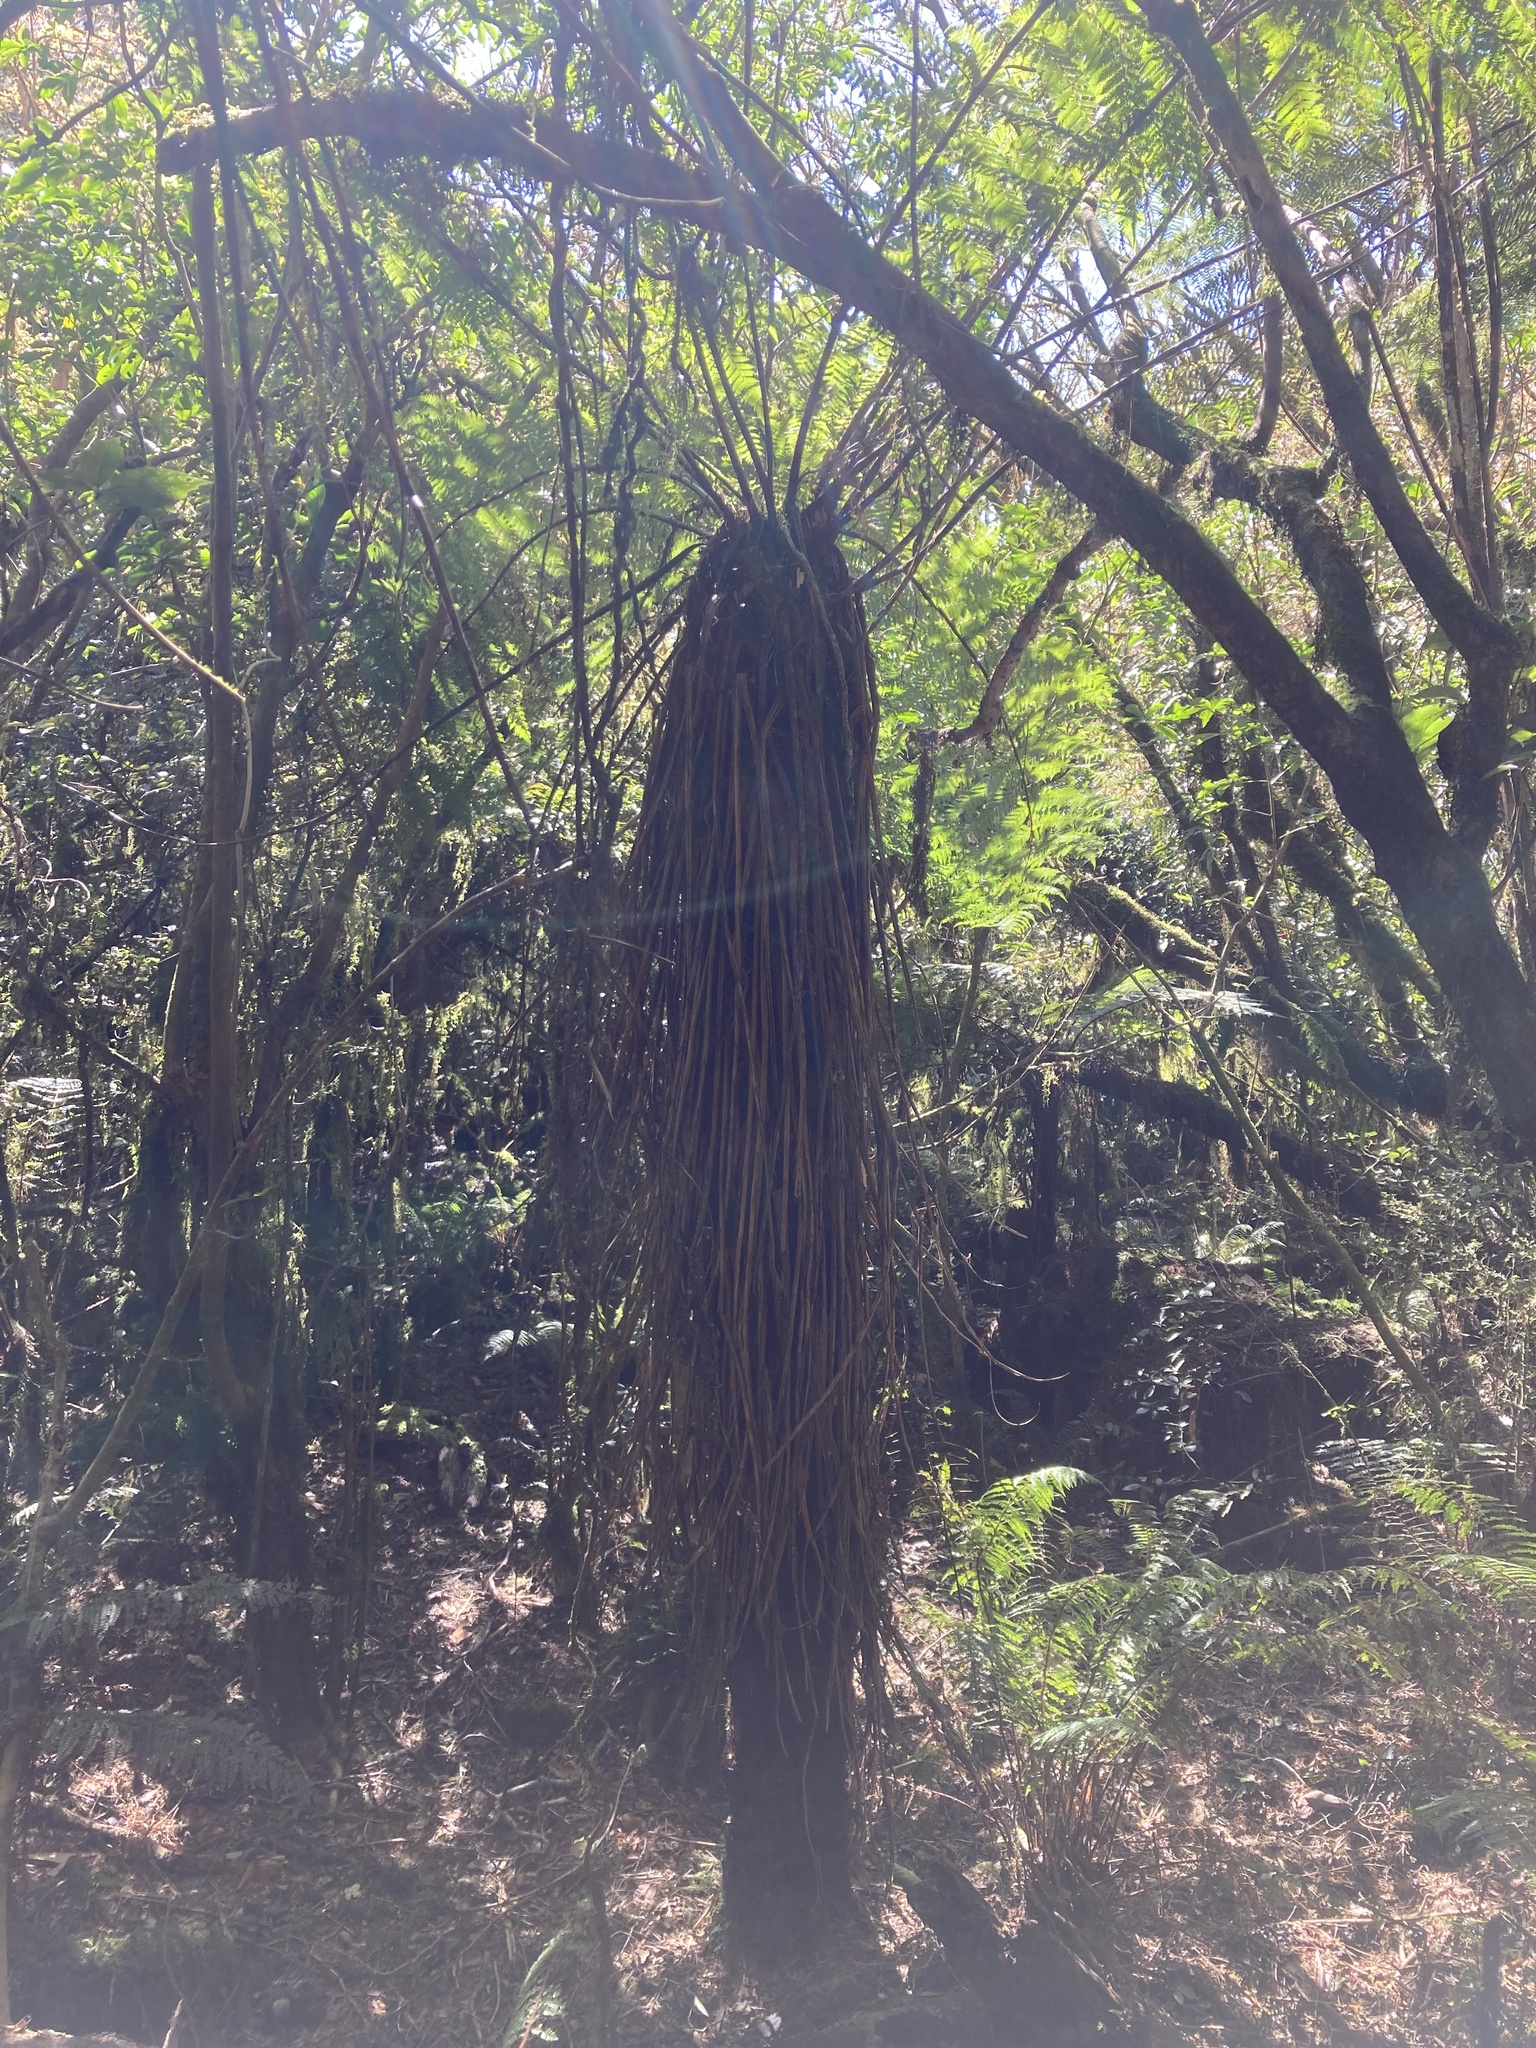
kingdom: Plantae
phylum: Tracheophyta
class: Polypodiopsida
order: Cyatheales
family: Cyatheaceae
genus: Alsophila
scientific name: Alsophila smithii
